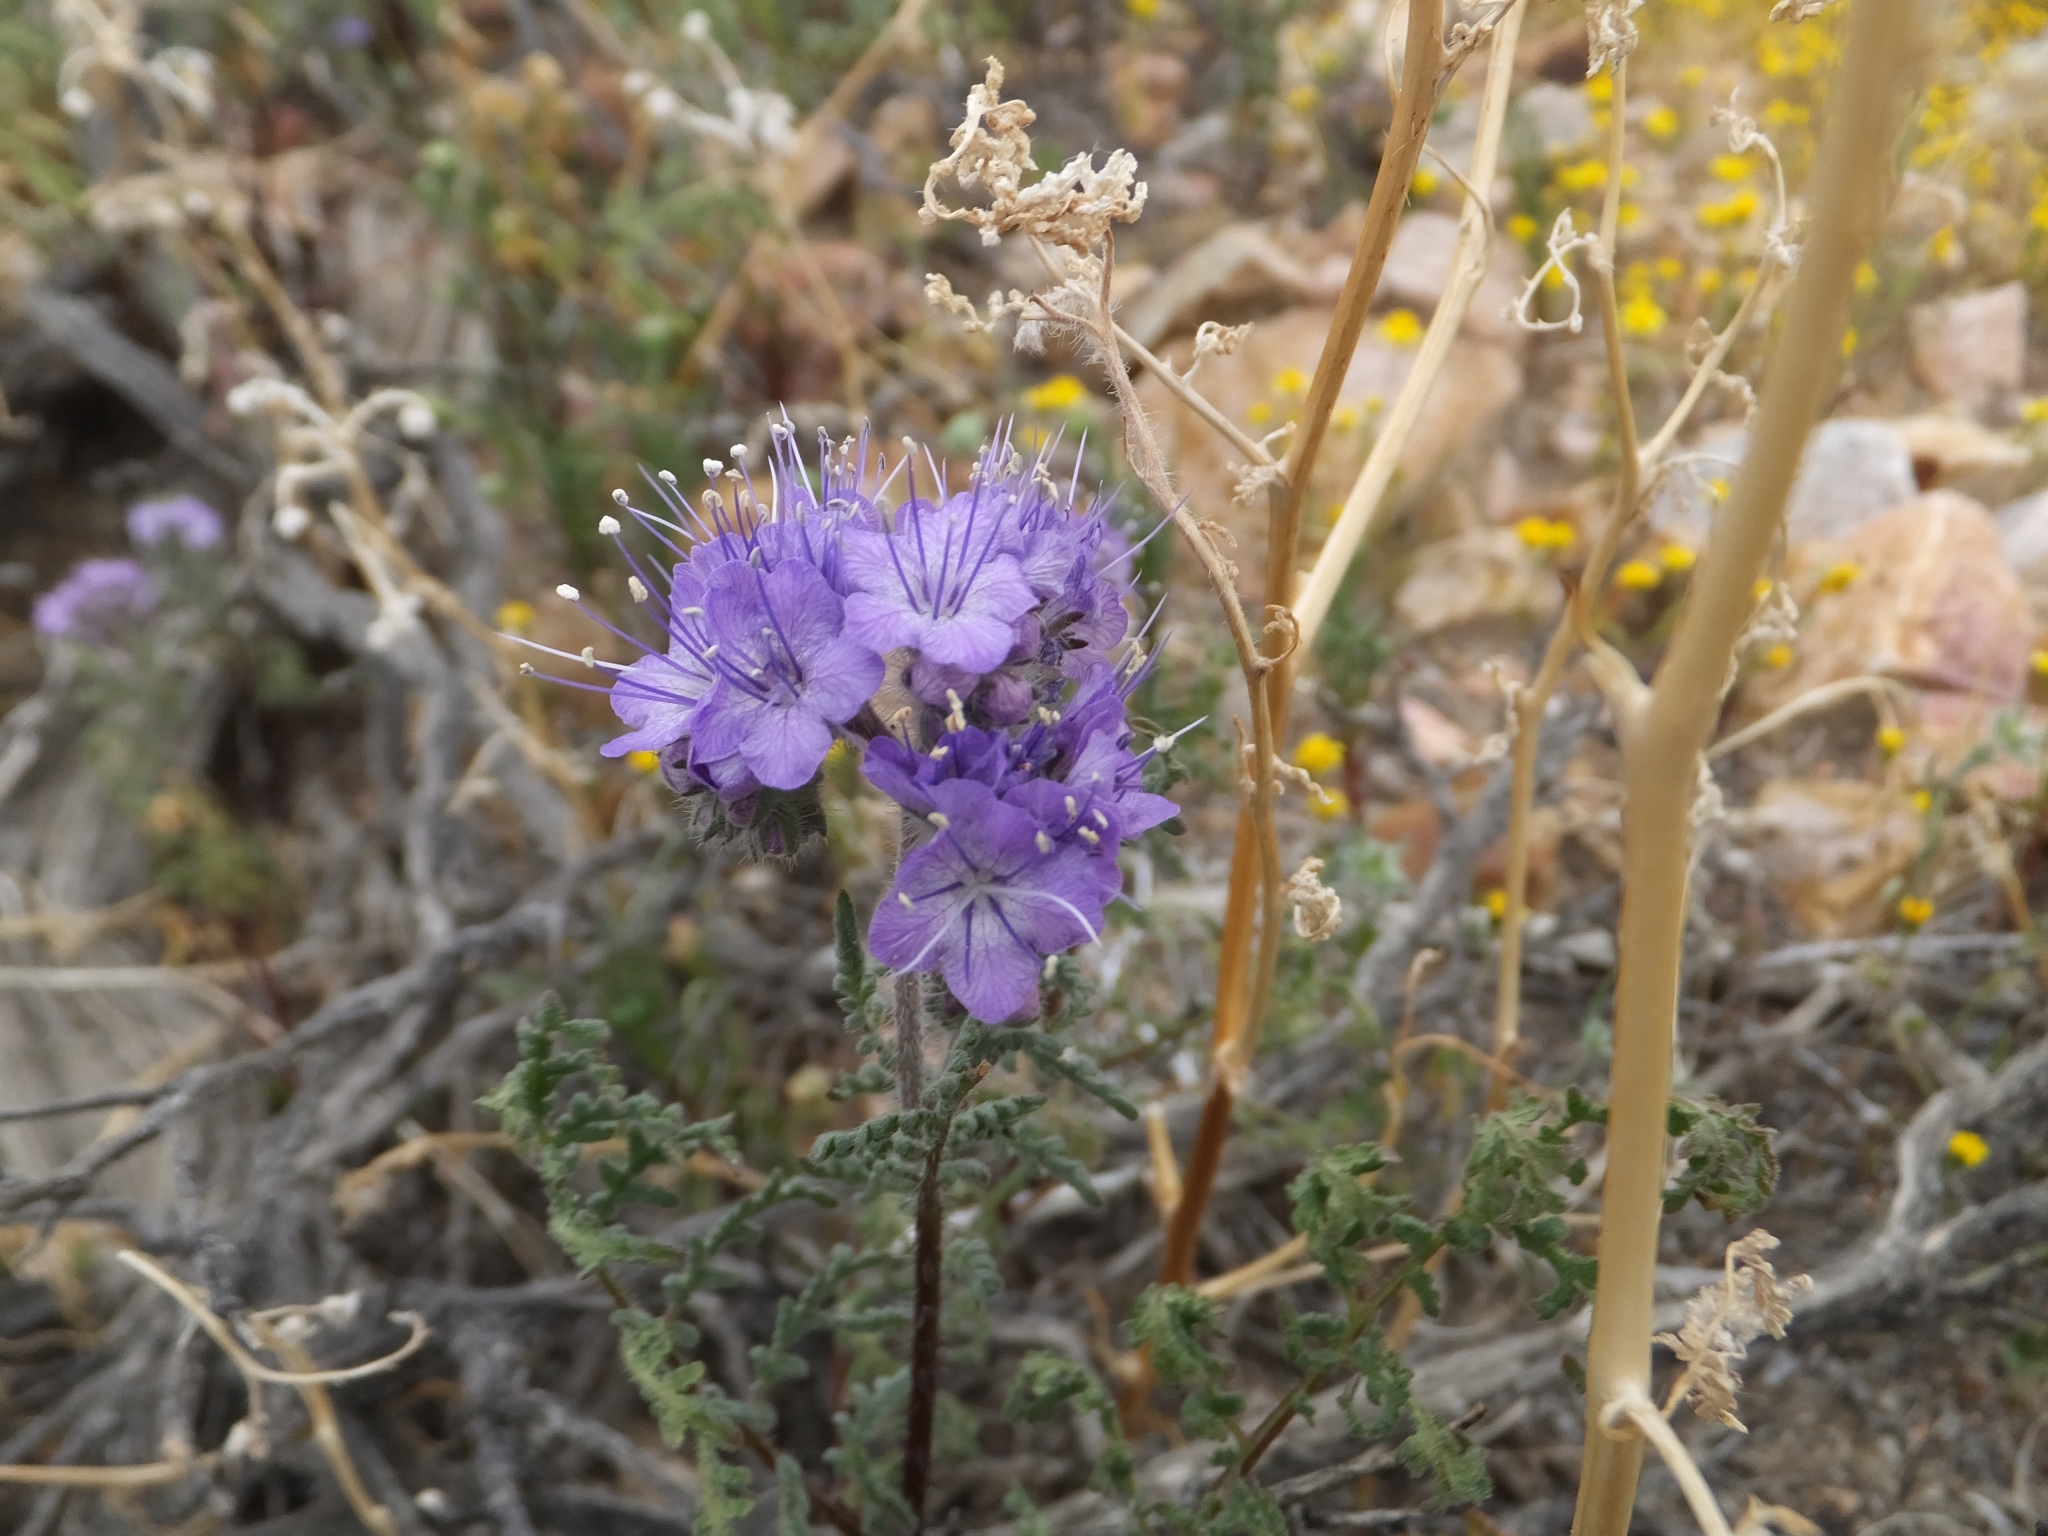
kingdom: Plantae
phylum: Tracheophyta
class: Magnoliopsida
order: Boraginales
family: Hydrophyllaceae
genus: Phacelia
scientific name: Phacelia tanacetifolia
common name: Phacelia
